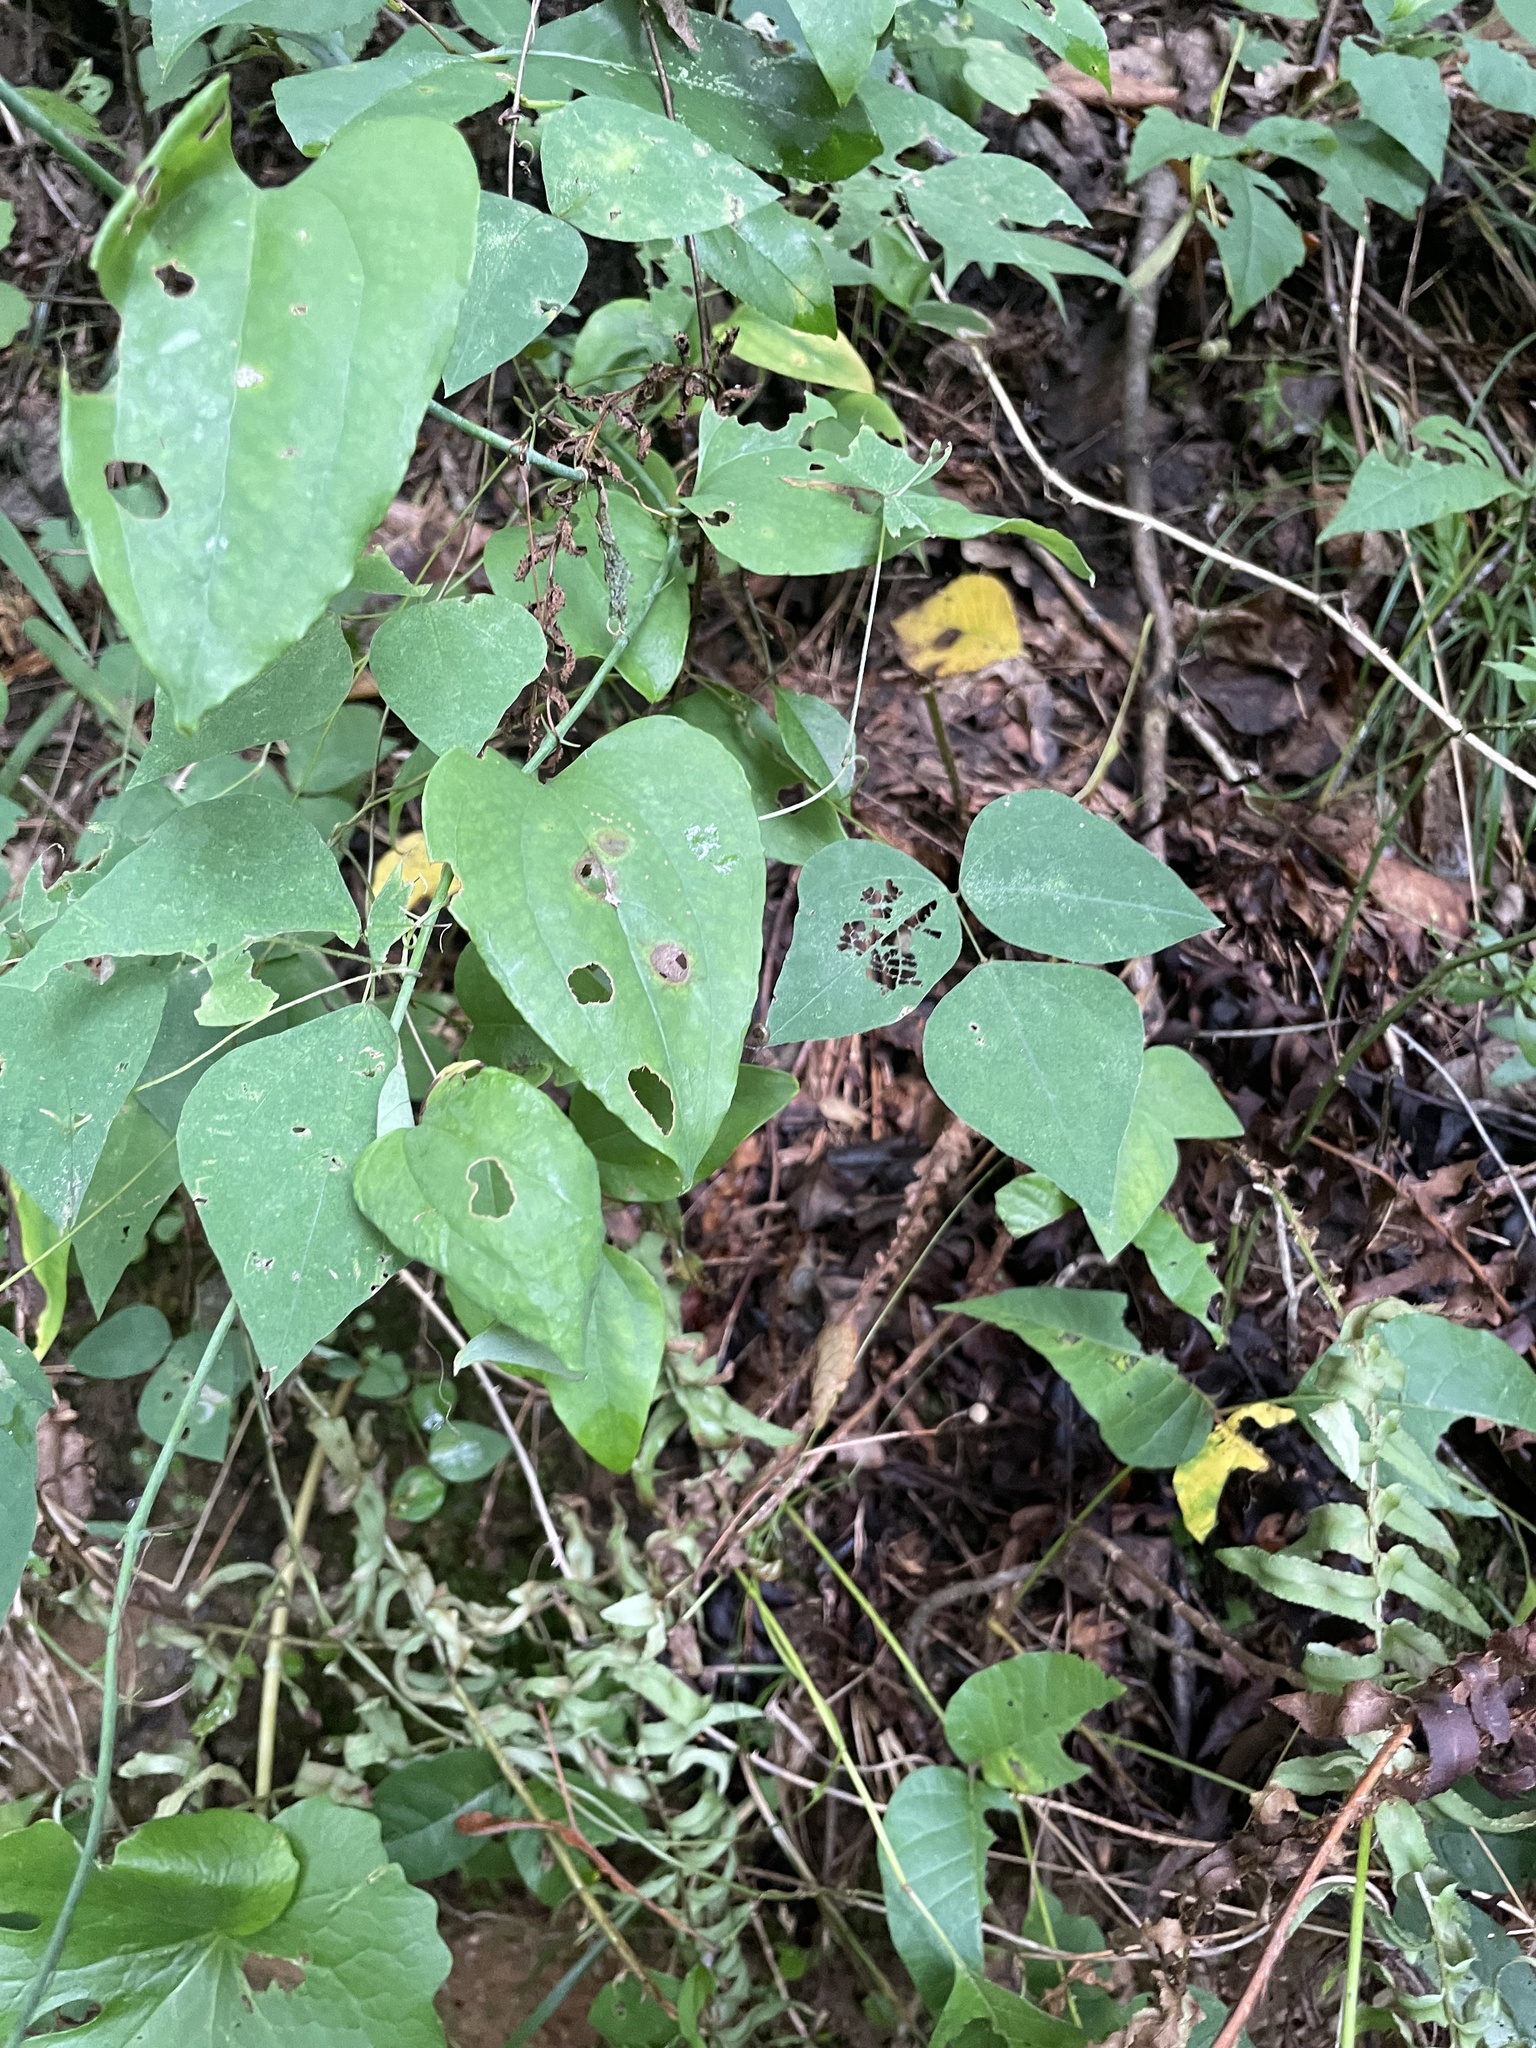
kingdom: Plantae
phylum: Tracheophyta
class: Liliopsida
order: Liliales
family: Smilacaceae
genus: Smilax
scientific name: Smilax glauca
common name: Cat greenbrier
